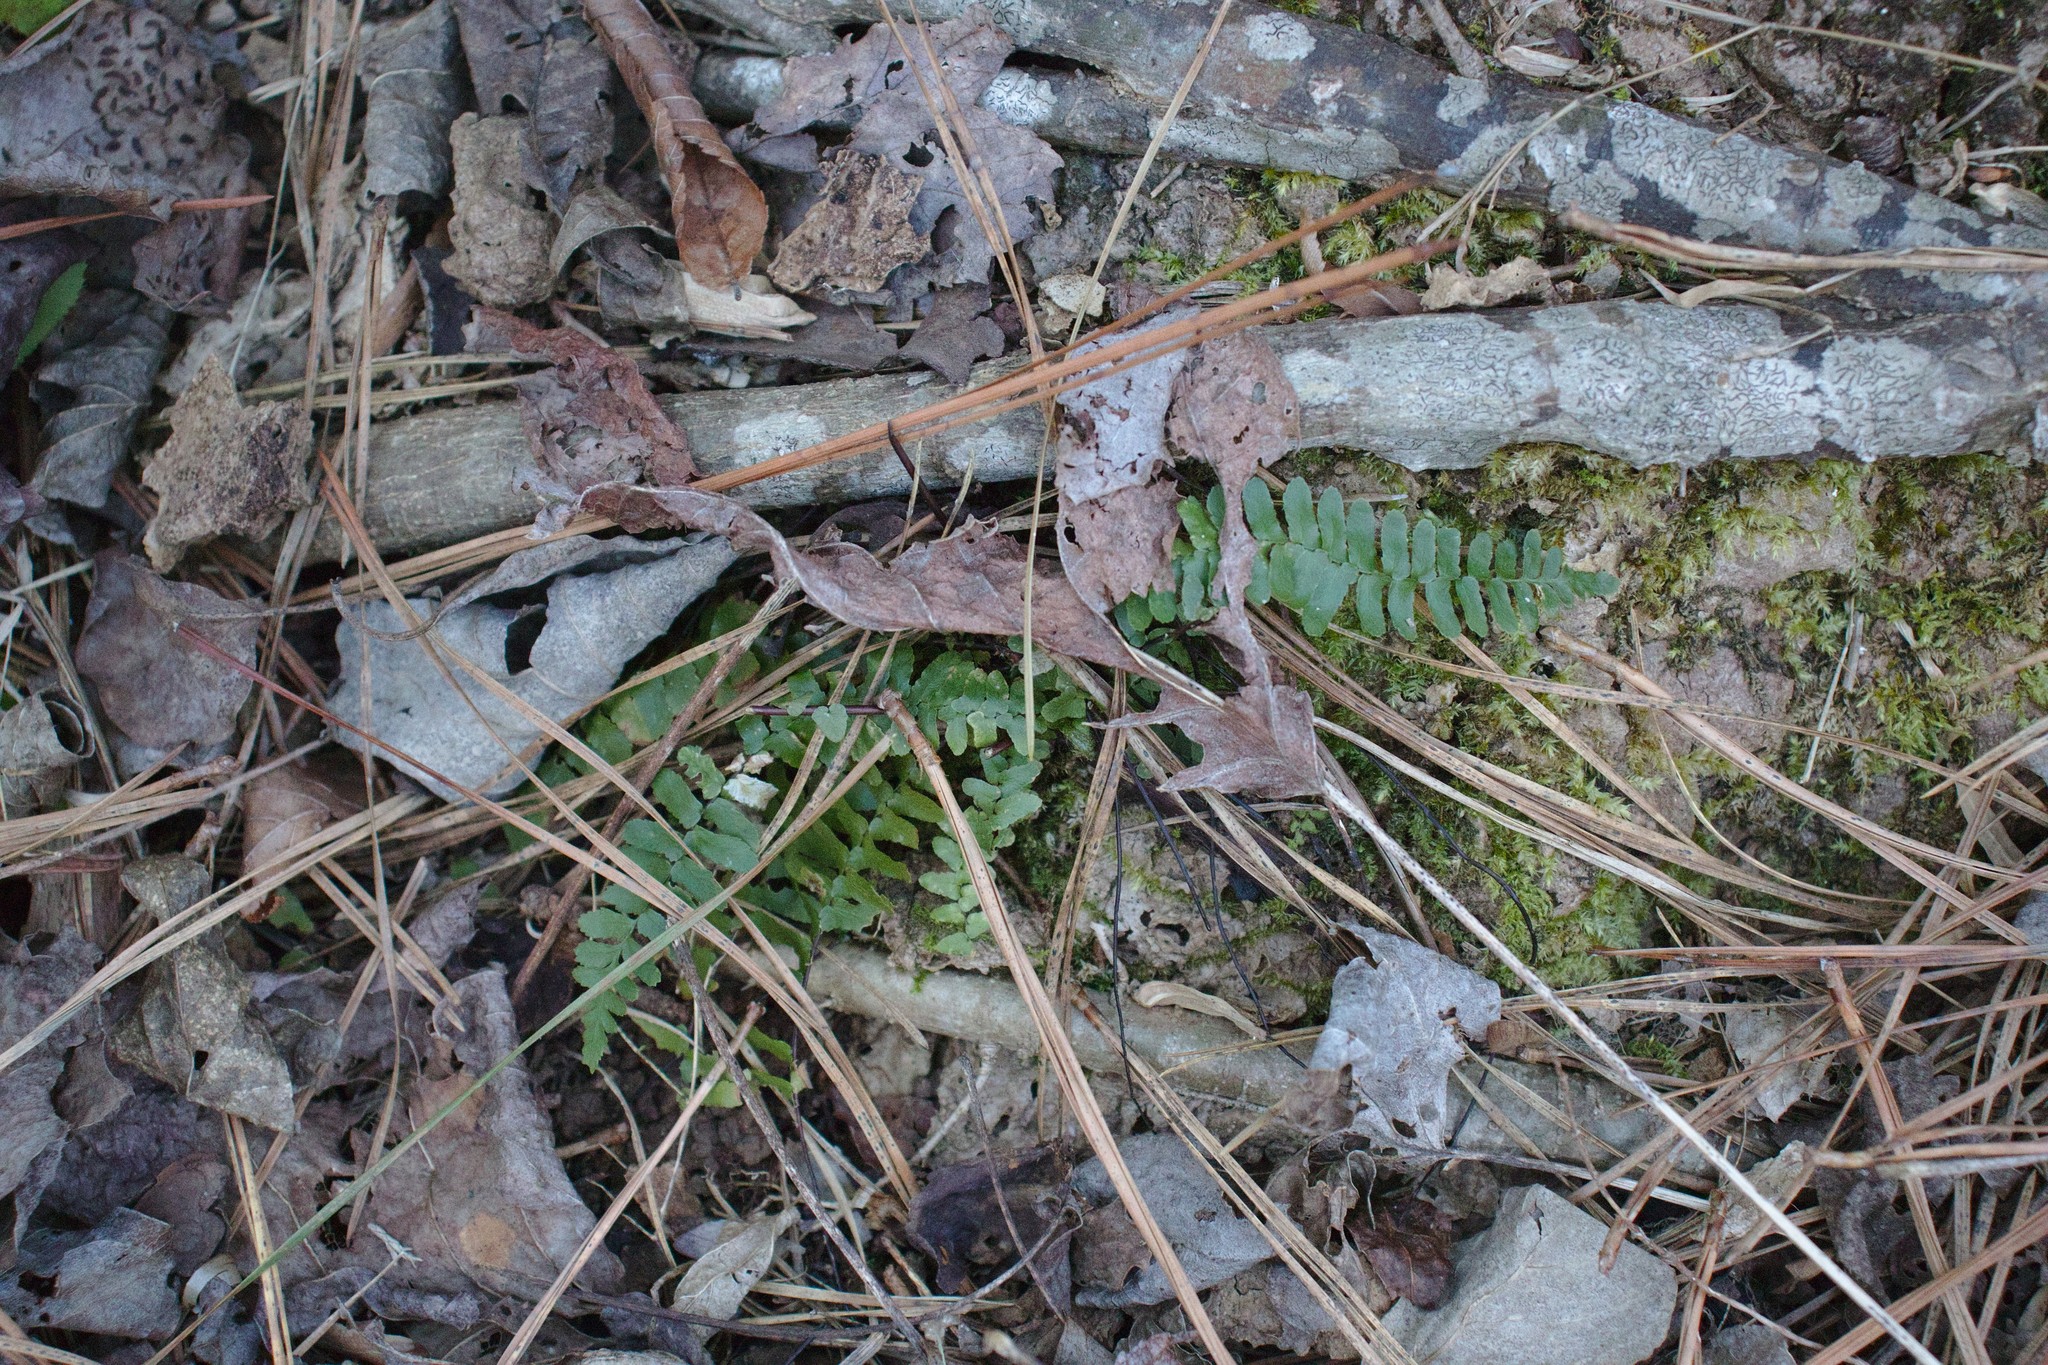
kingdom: Plantae
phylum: Tracheophyta
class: Polypodiopsida
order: Polypodiales
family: Aspleniaceae
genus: Asplenium
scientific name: Asplenium platyneuron
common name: Ebony spleenwort
